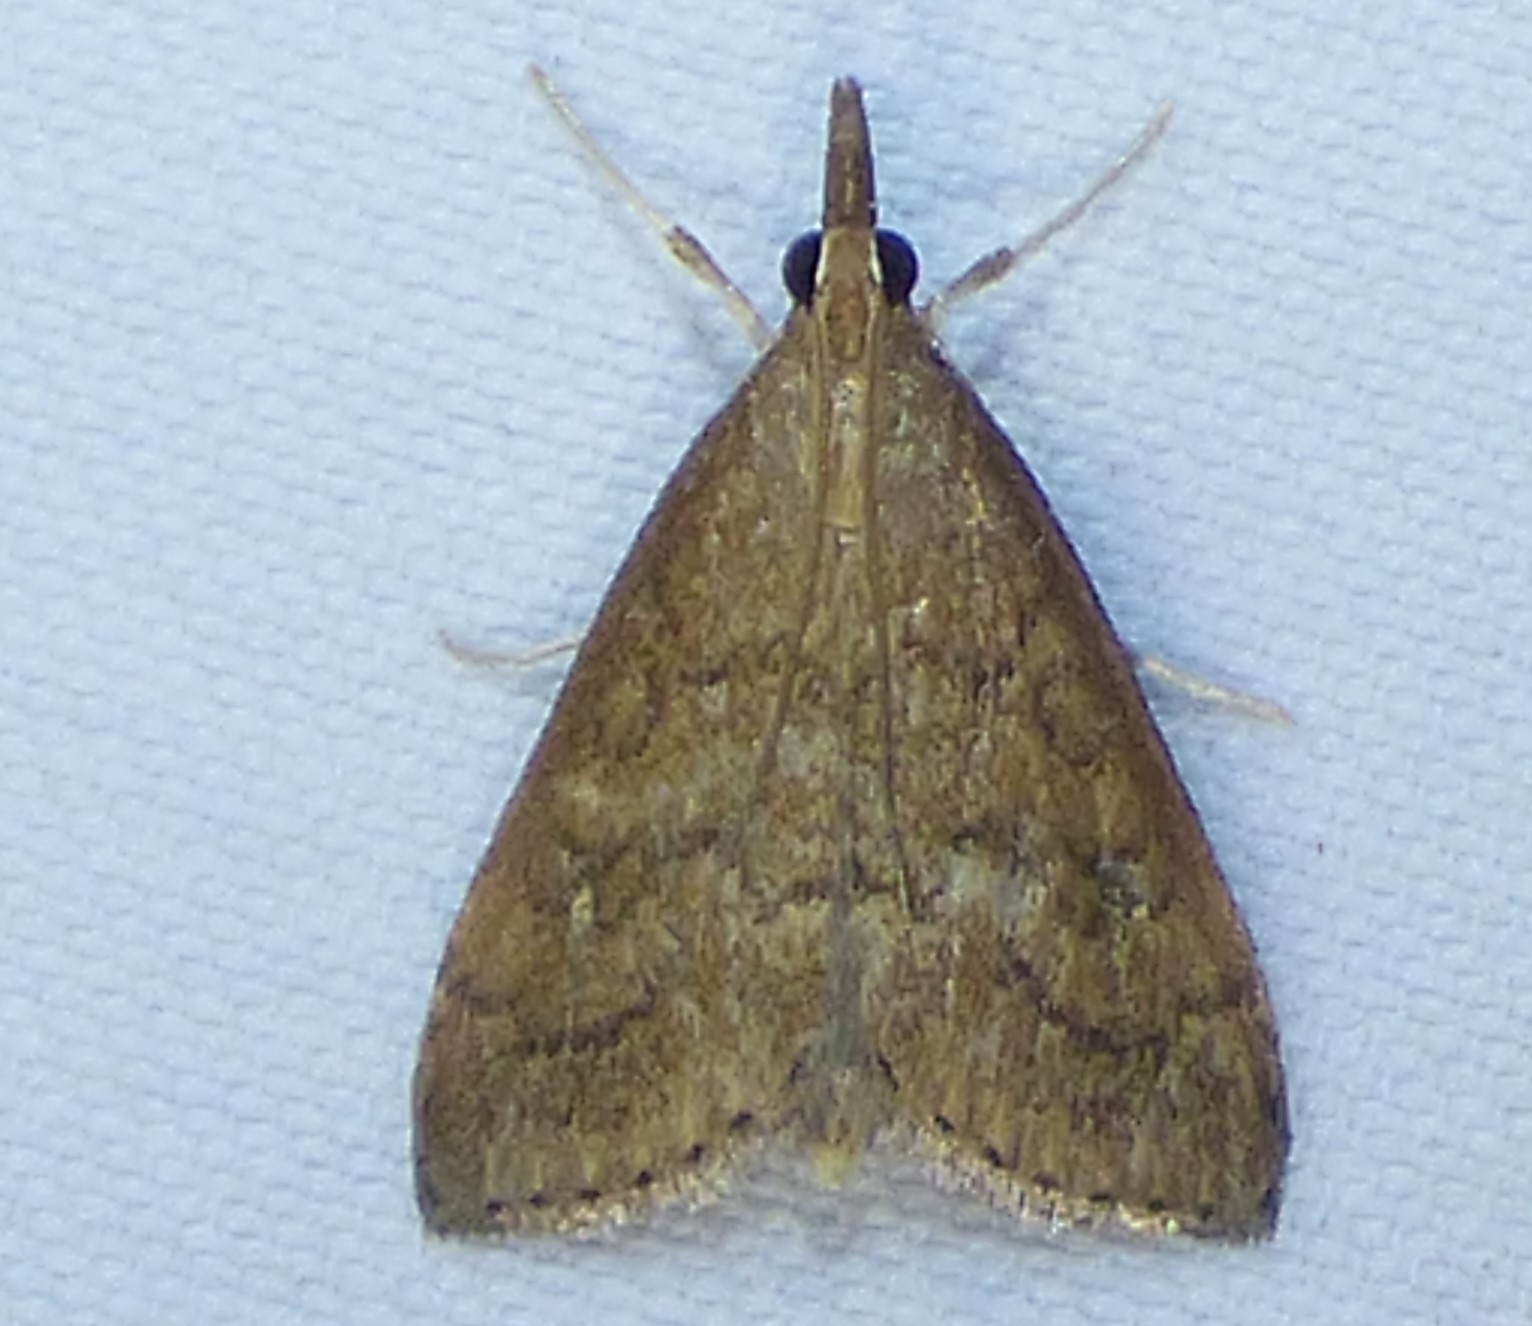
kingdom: Animalia
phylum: Arthropoda
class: Insecta
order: Lepidoptera
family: Crambidae
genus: Udea
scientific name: Udea rubigalis
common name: Celery leaftier moth
